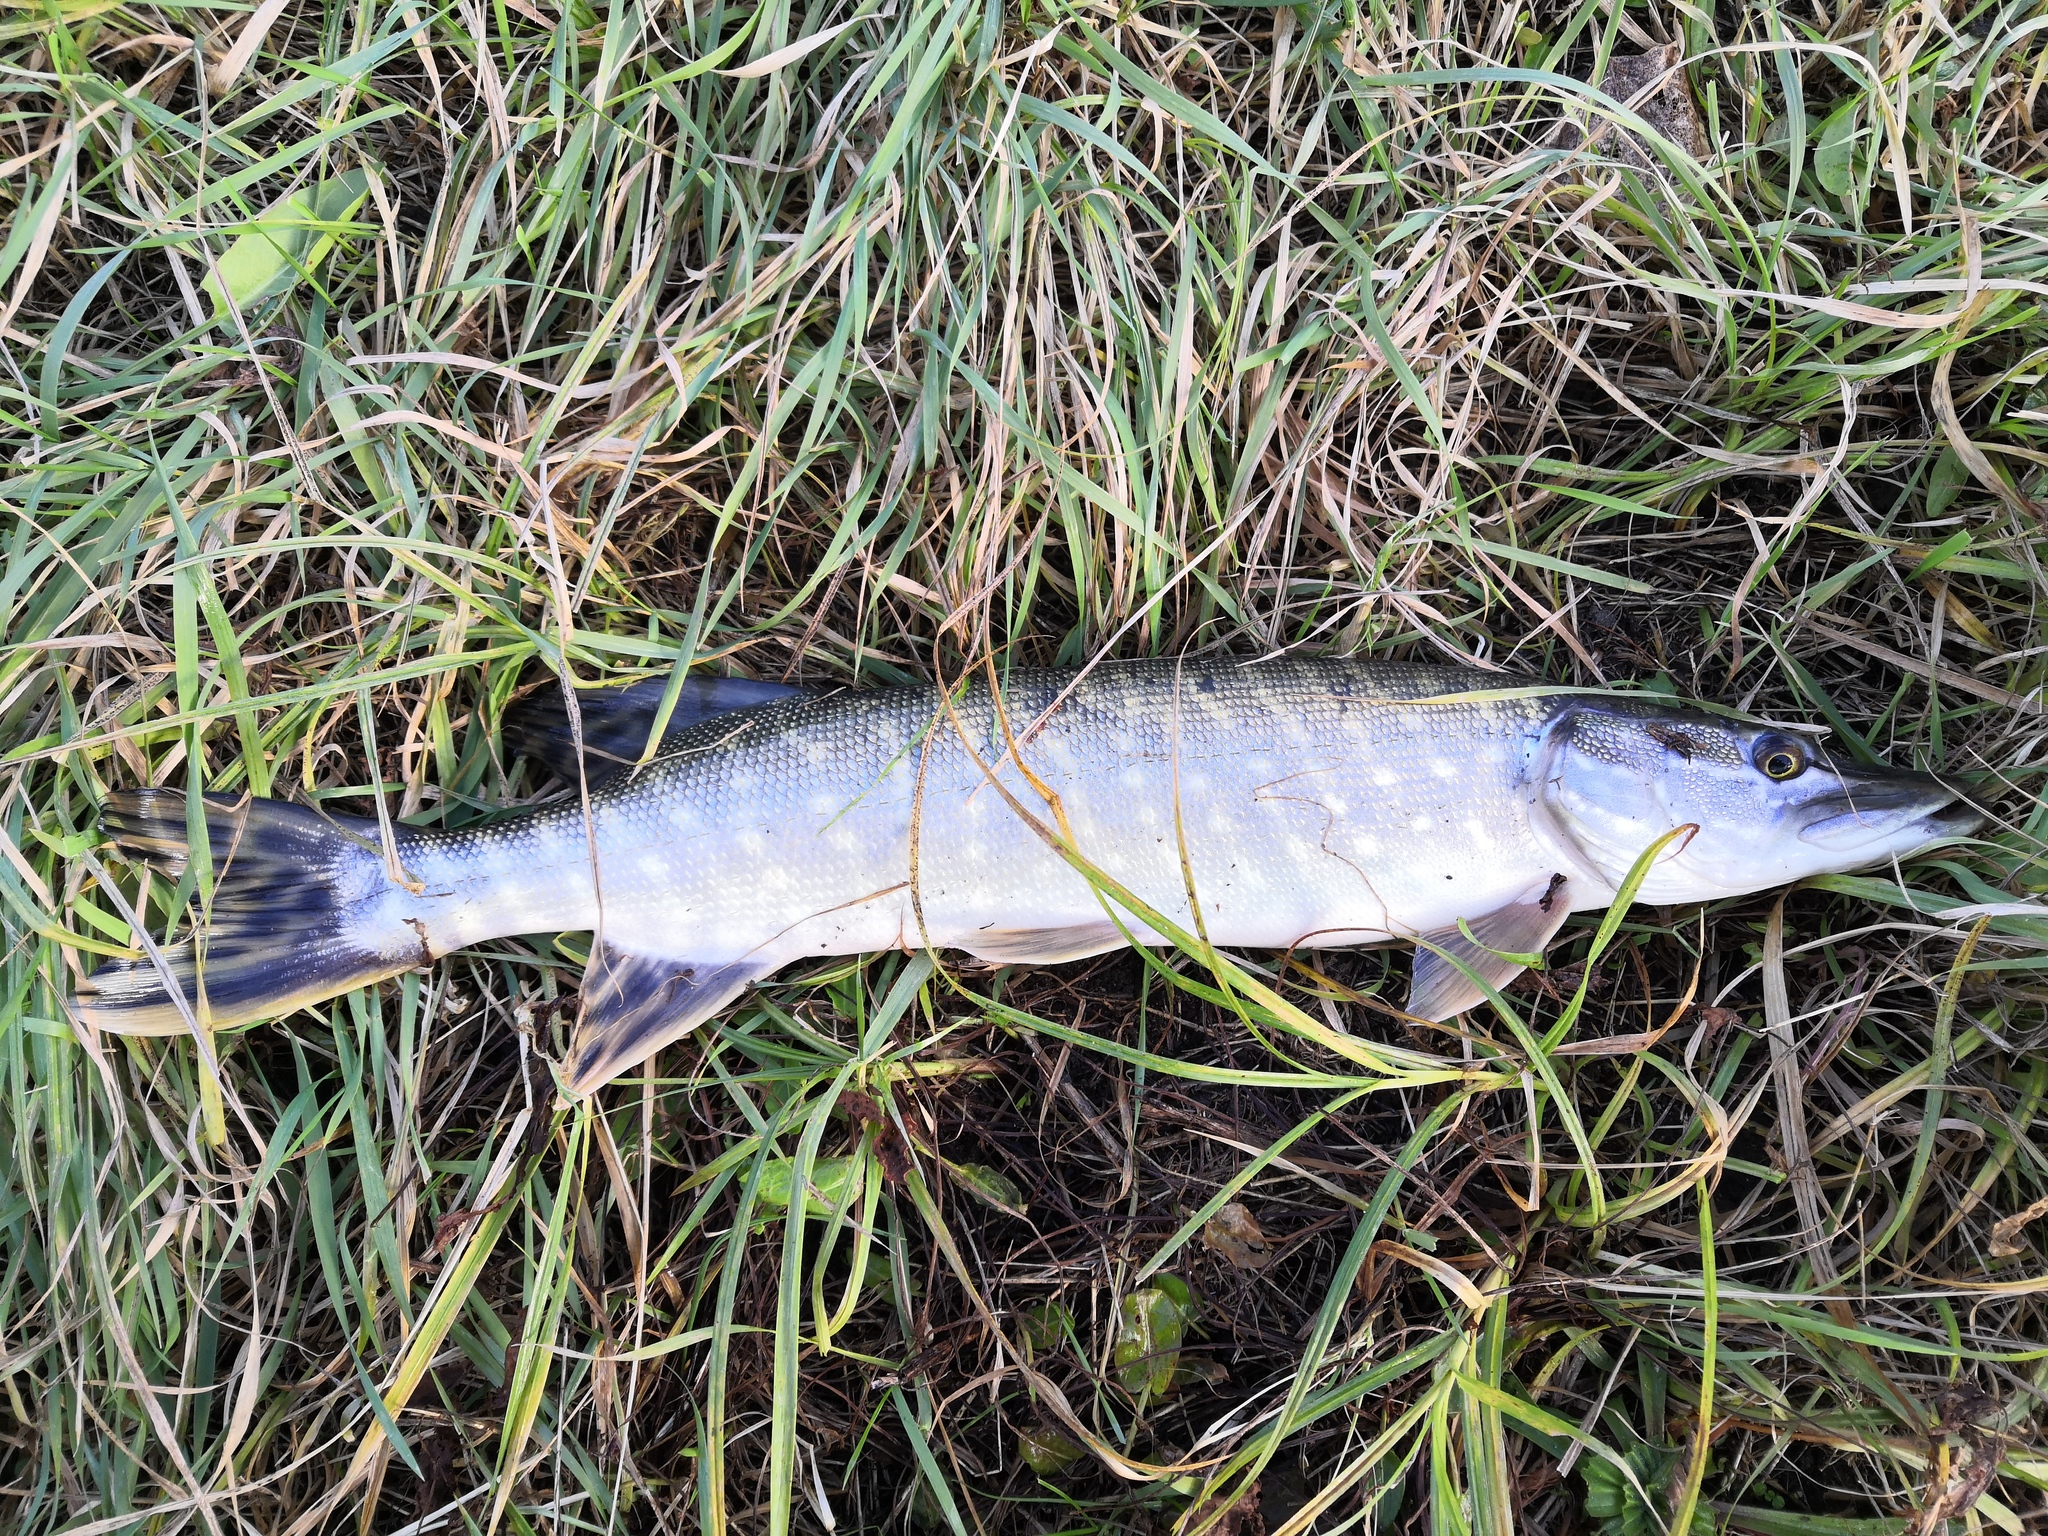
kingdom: Animalia
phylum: Chordata
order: Esociformes
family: Esocidae
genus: Esox
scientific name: Esox lucius
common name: Northern pike
